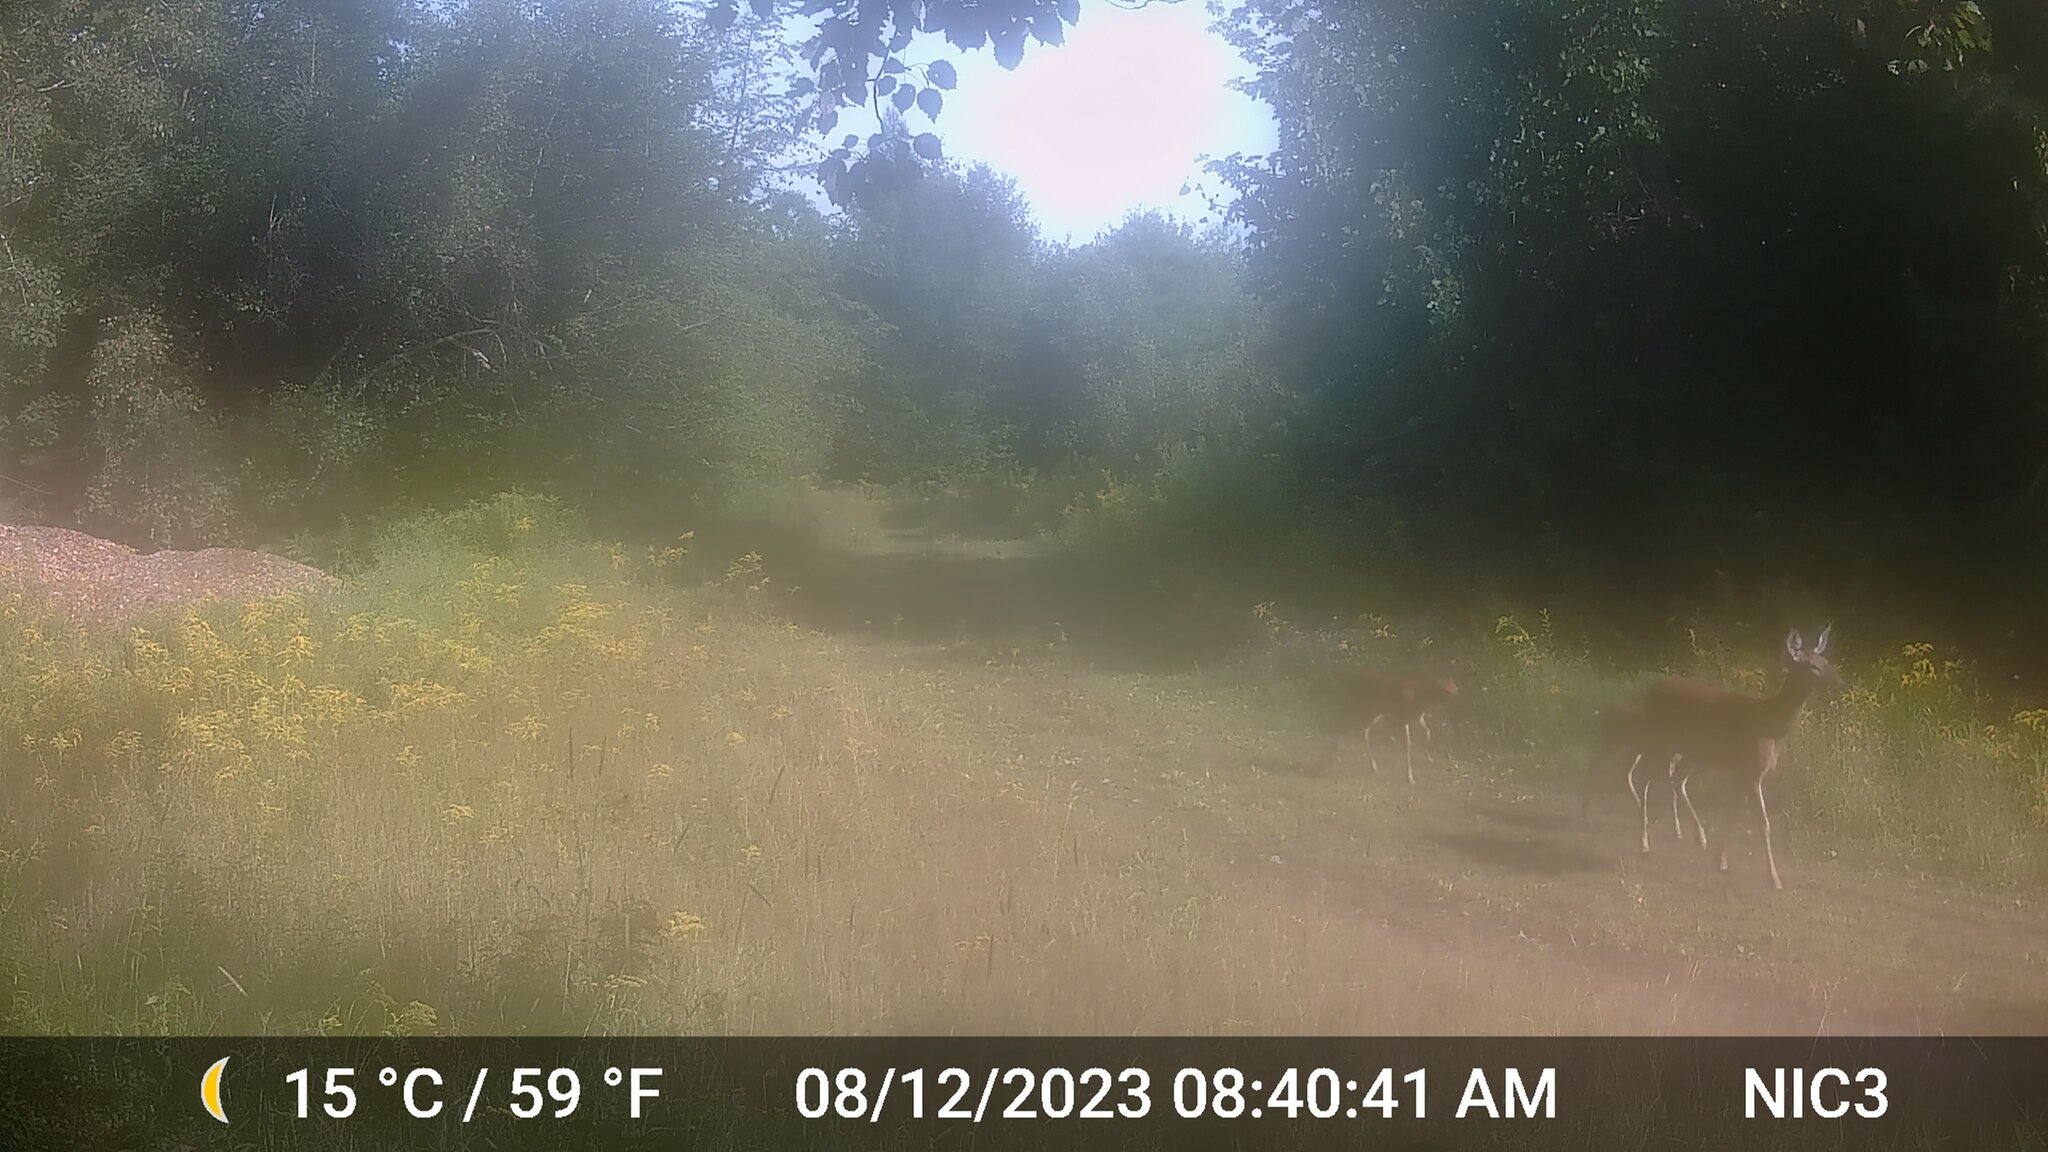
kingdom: Animalia
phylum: Chordata
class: Mammalia
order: Artiodactyla
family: Cervidae
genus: Odocoileus
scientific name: Odocoileus virginianus
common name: White-tailed deer
